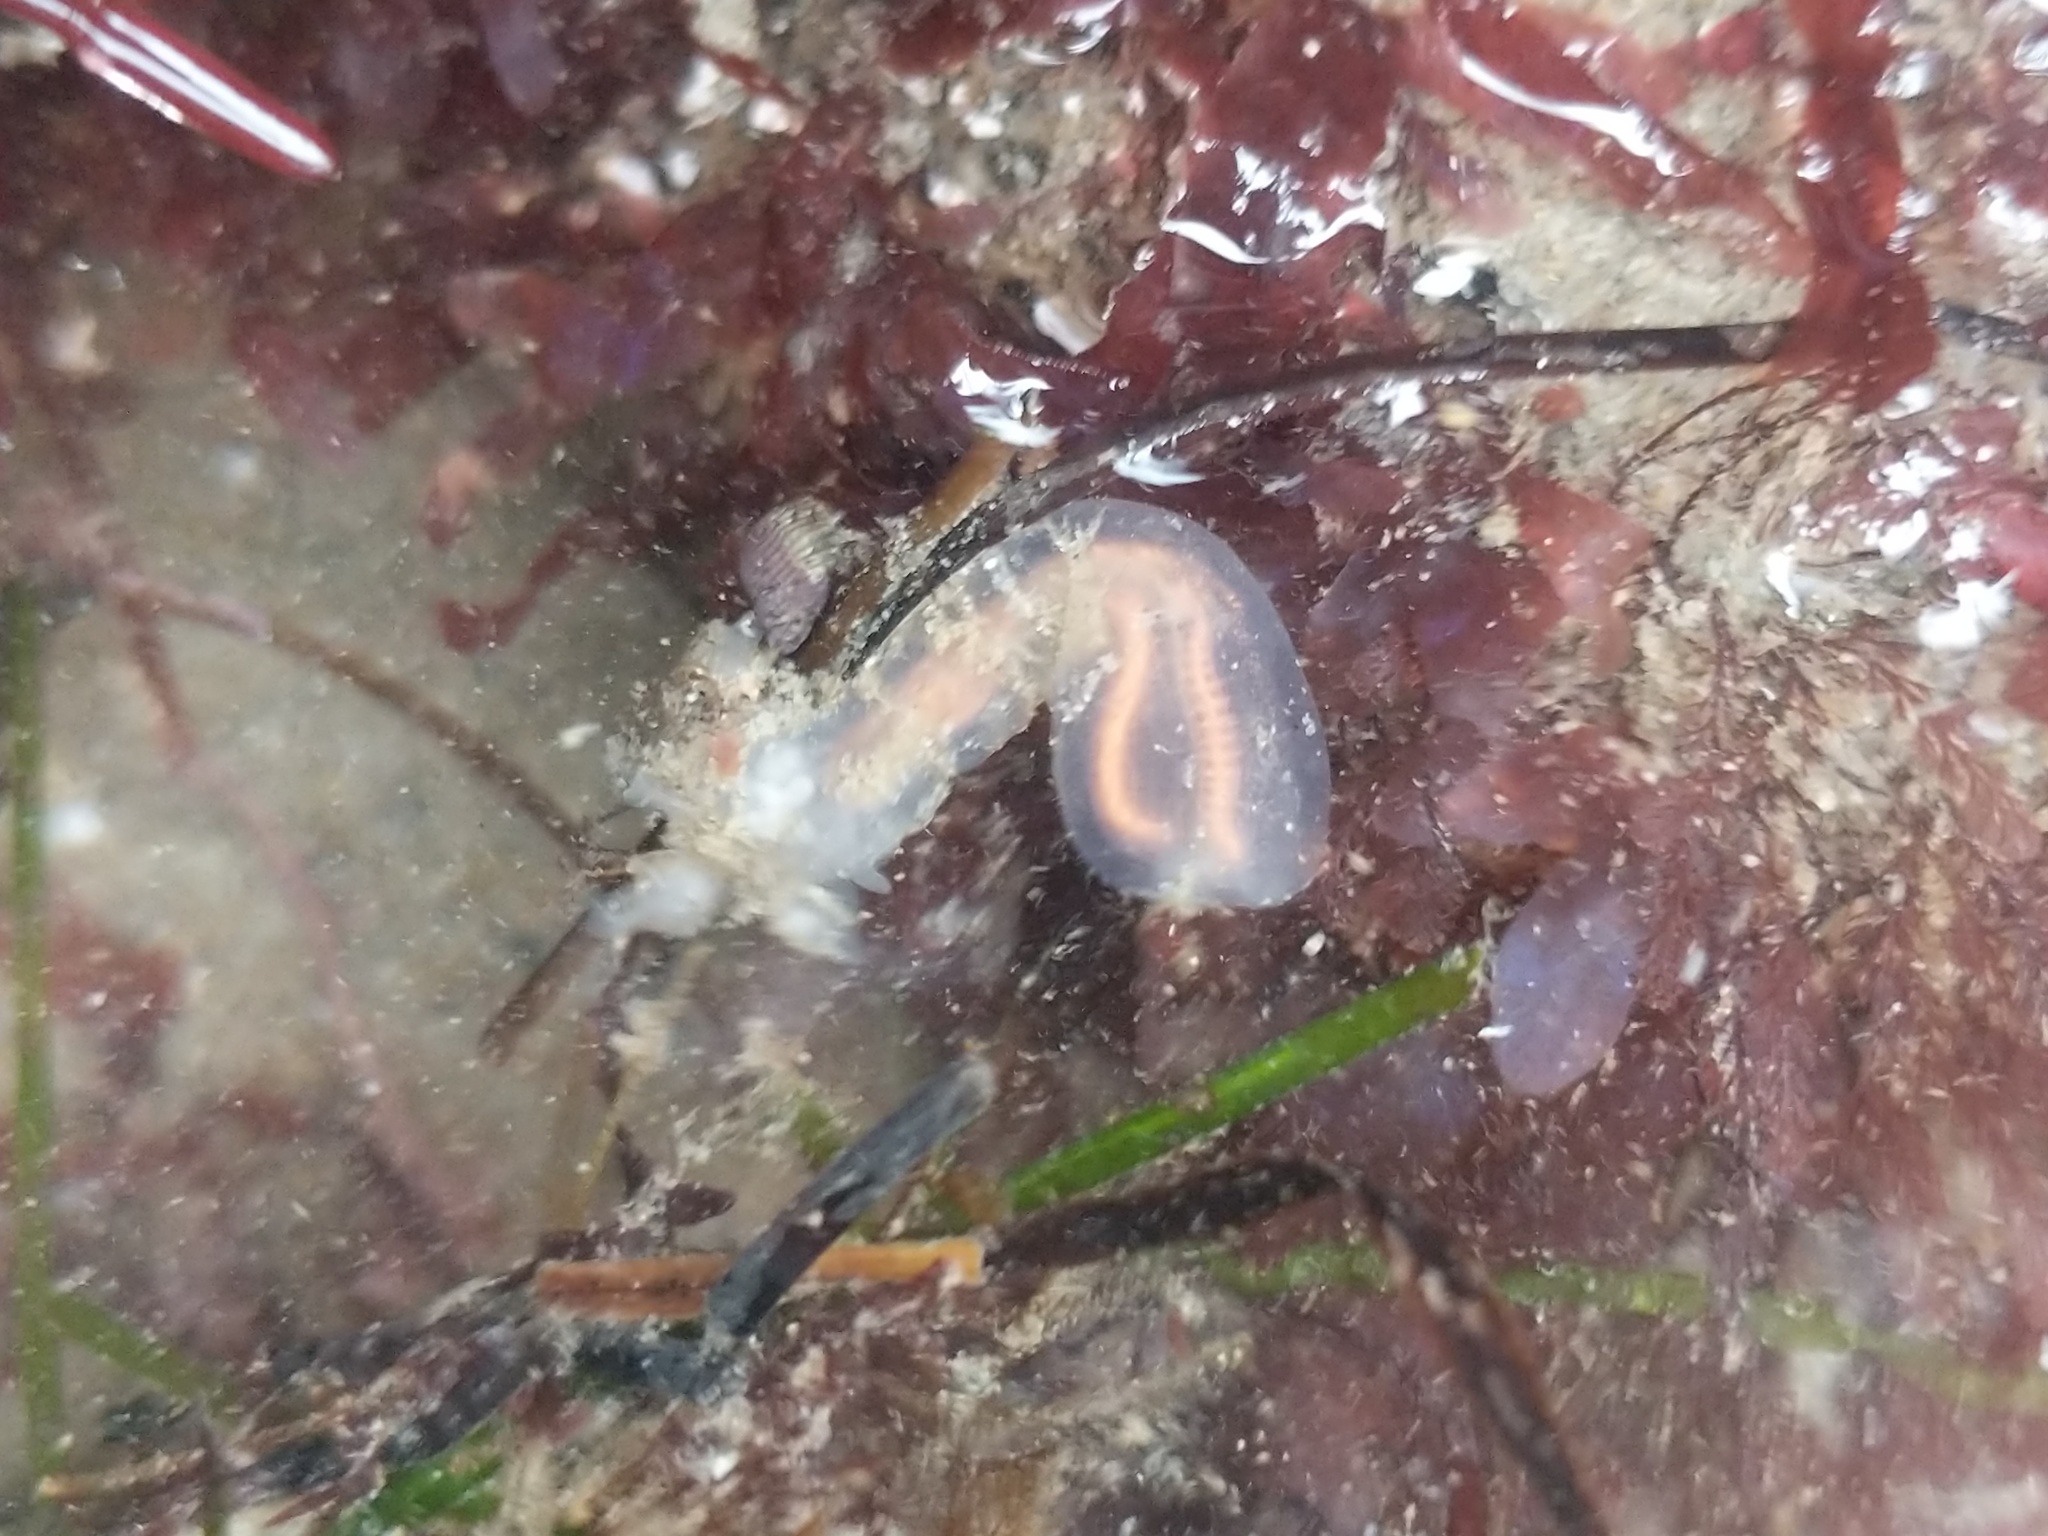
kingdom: Animalia
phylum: Chordata
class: Ascidiacea
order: Aplousobranchia
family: Clavelinidae
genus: Clavelina
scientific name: Clavelina huntsmani
